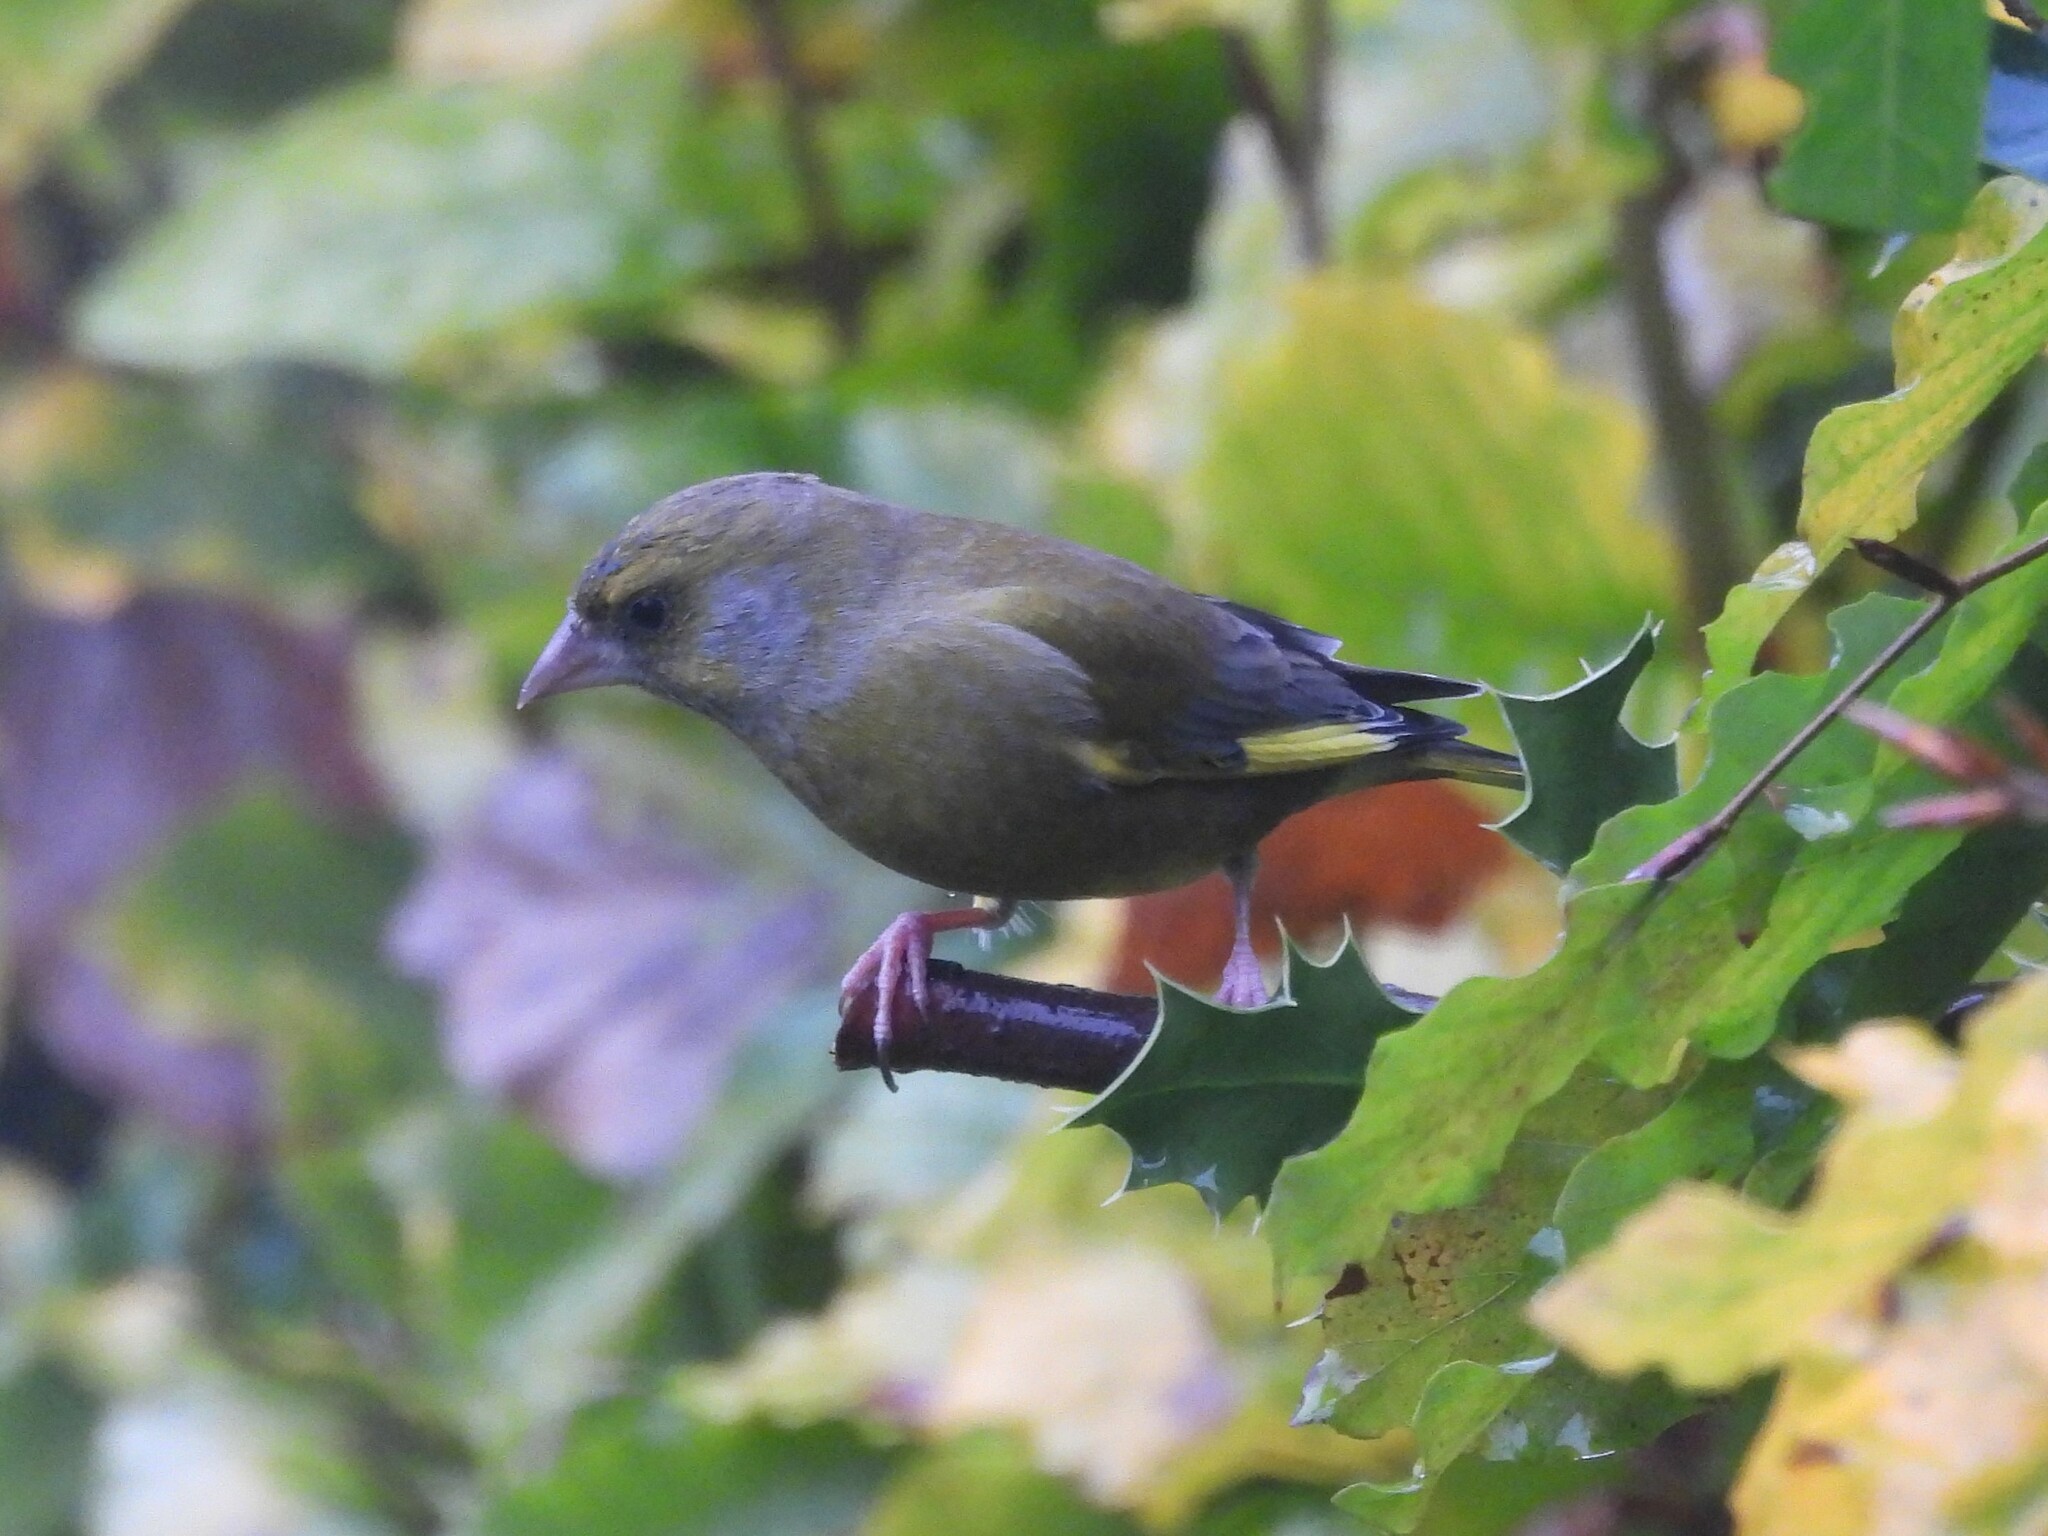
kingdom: Plantae
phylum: Tracheophyta
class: Liliopsida
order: Poales
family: Poaceae
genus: Chloris
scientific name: Chloris chloris
